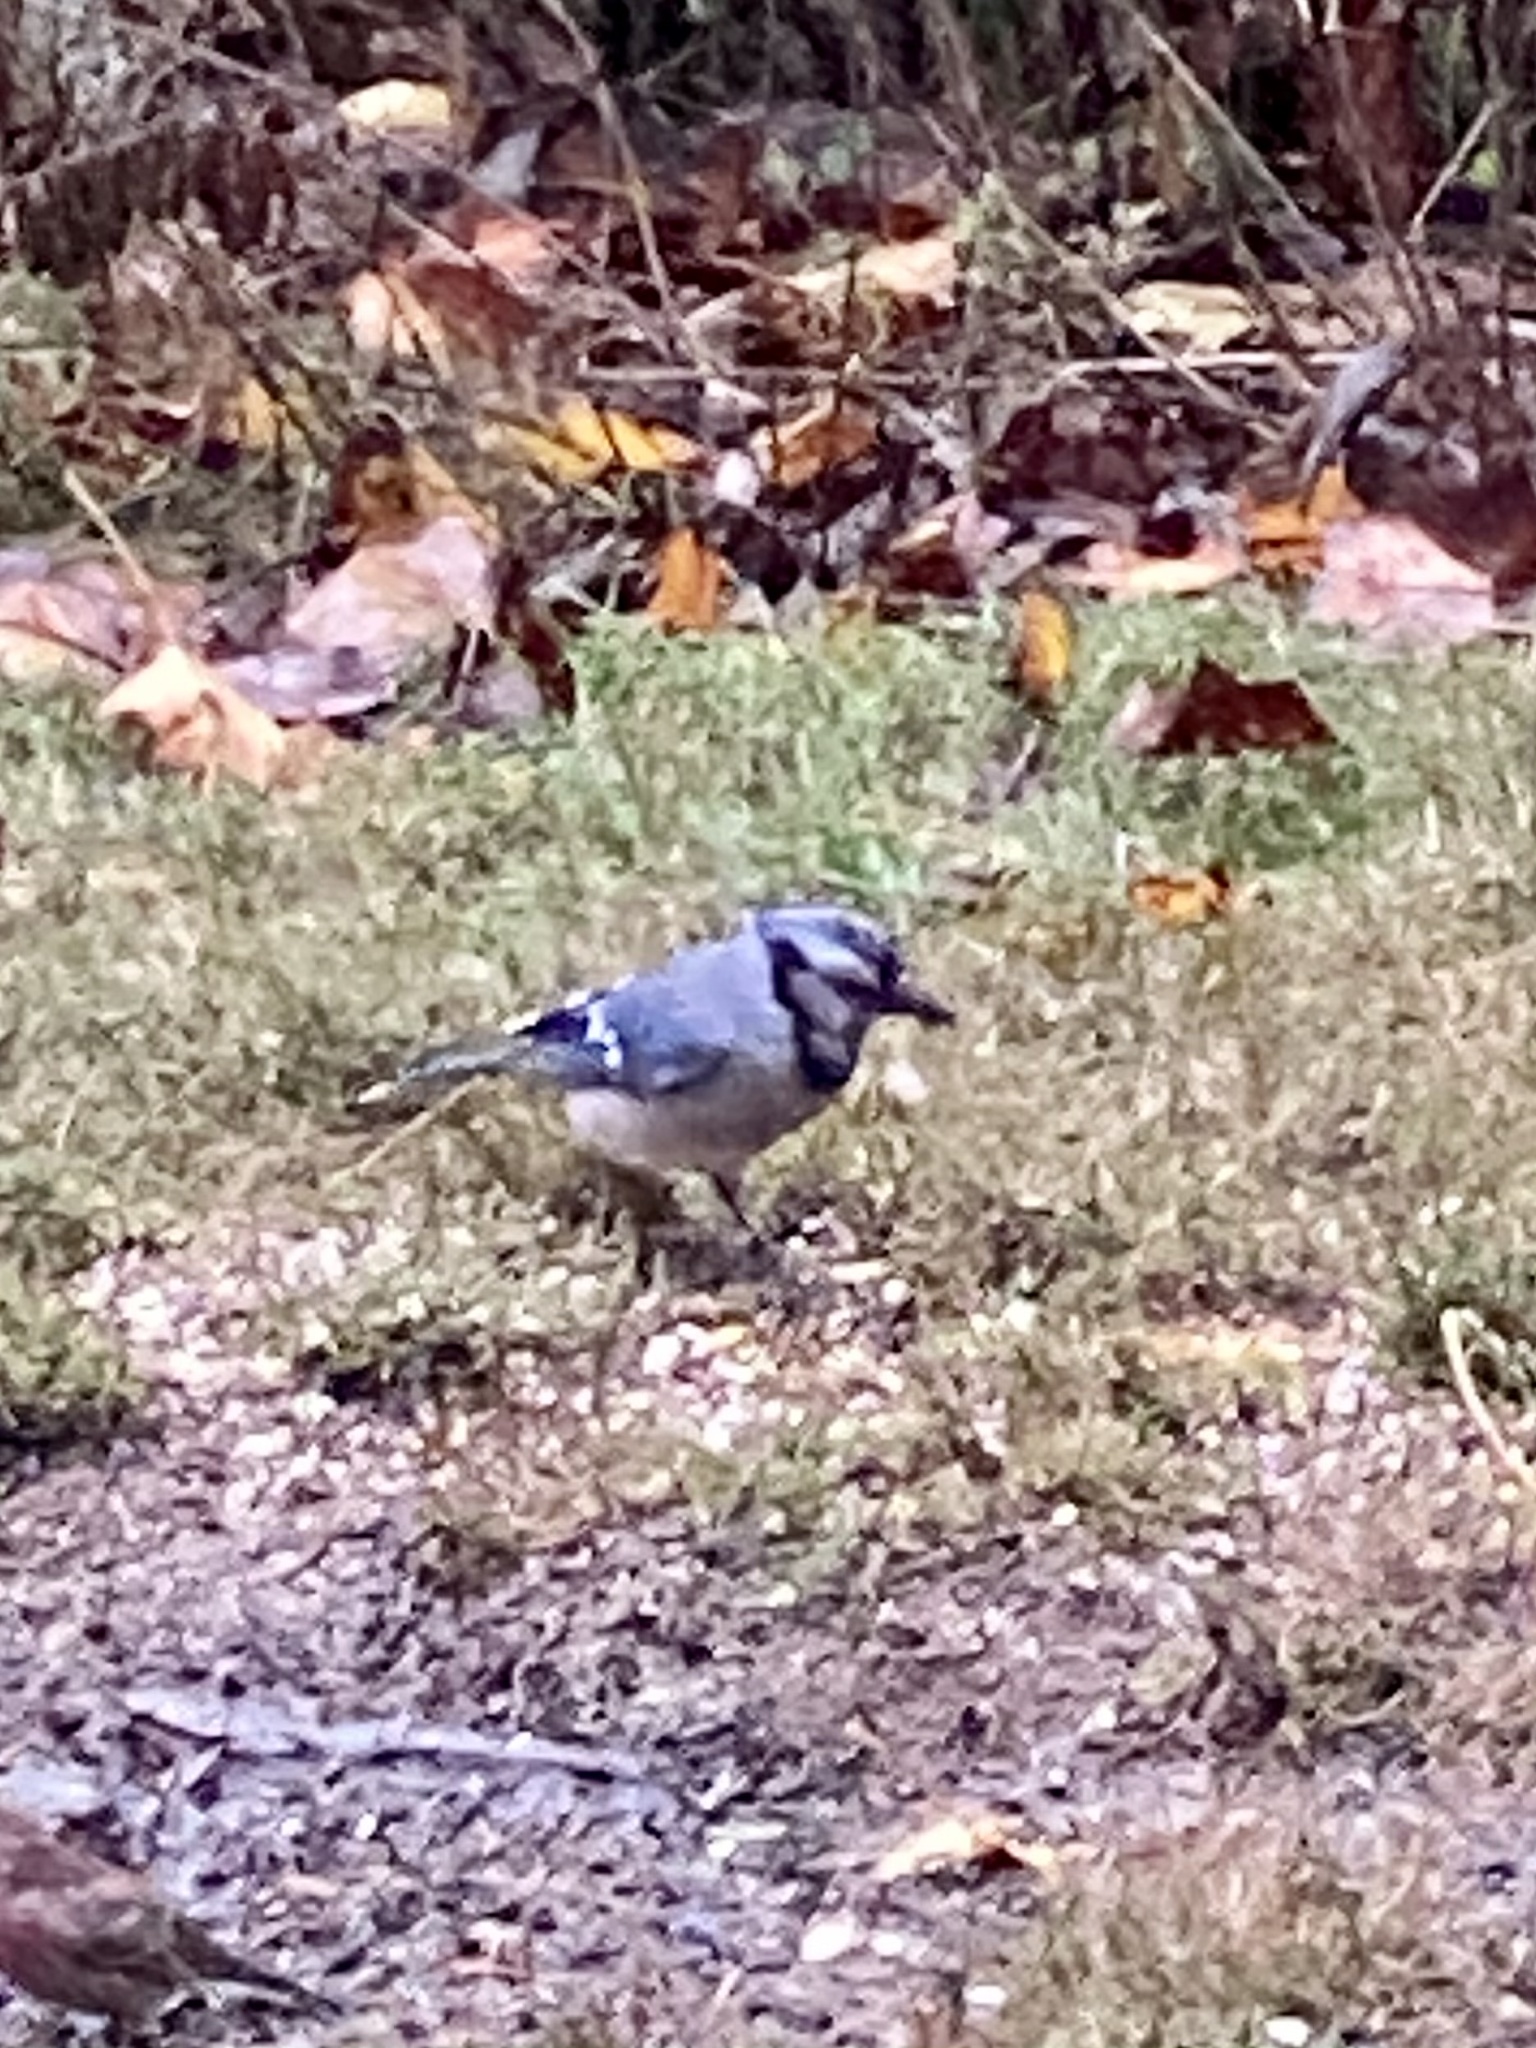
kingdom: Animalia
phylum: Chordata
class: Aves
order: Passeriformes
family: Corvidae
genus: Cyanocitta
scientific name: Cyanocitta cristata
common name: Blue jay
